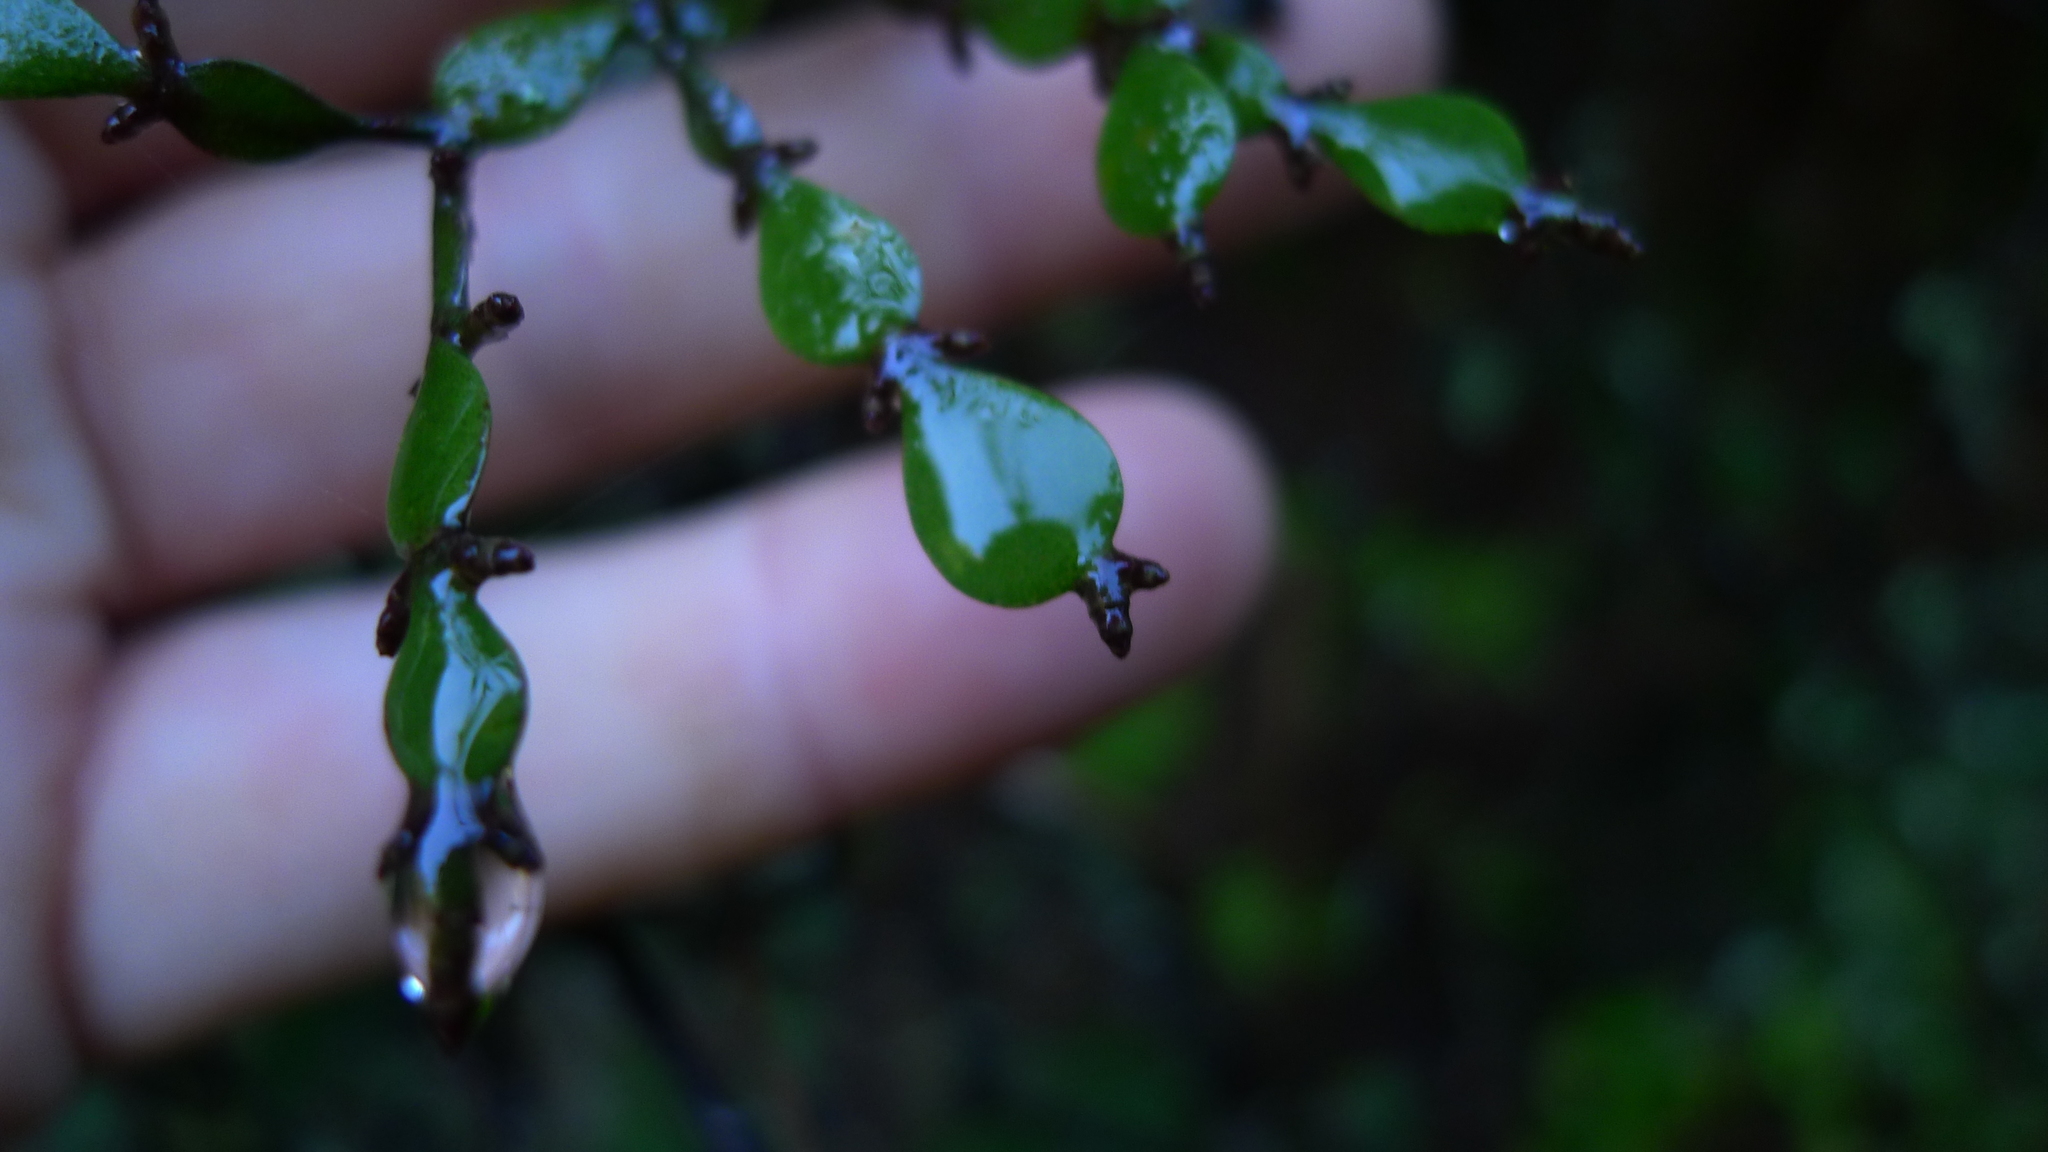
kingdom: Plantae
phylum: Tracheophyta
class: Magnoliopsida
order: Santalales
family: Viscaceae
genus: Korthalsella
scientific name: Korthalsella lindsayi
